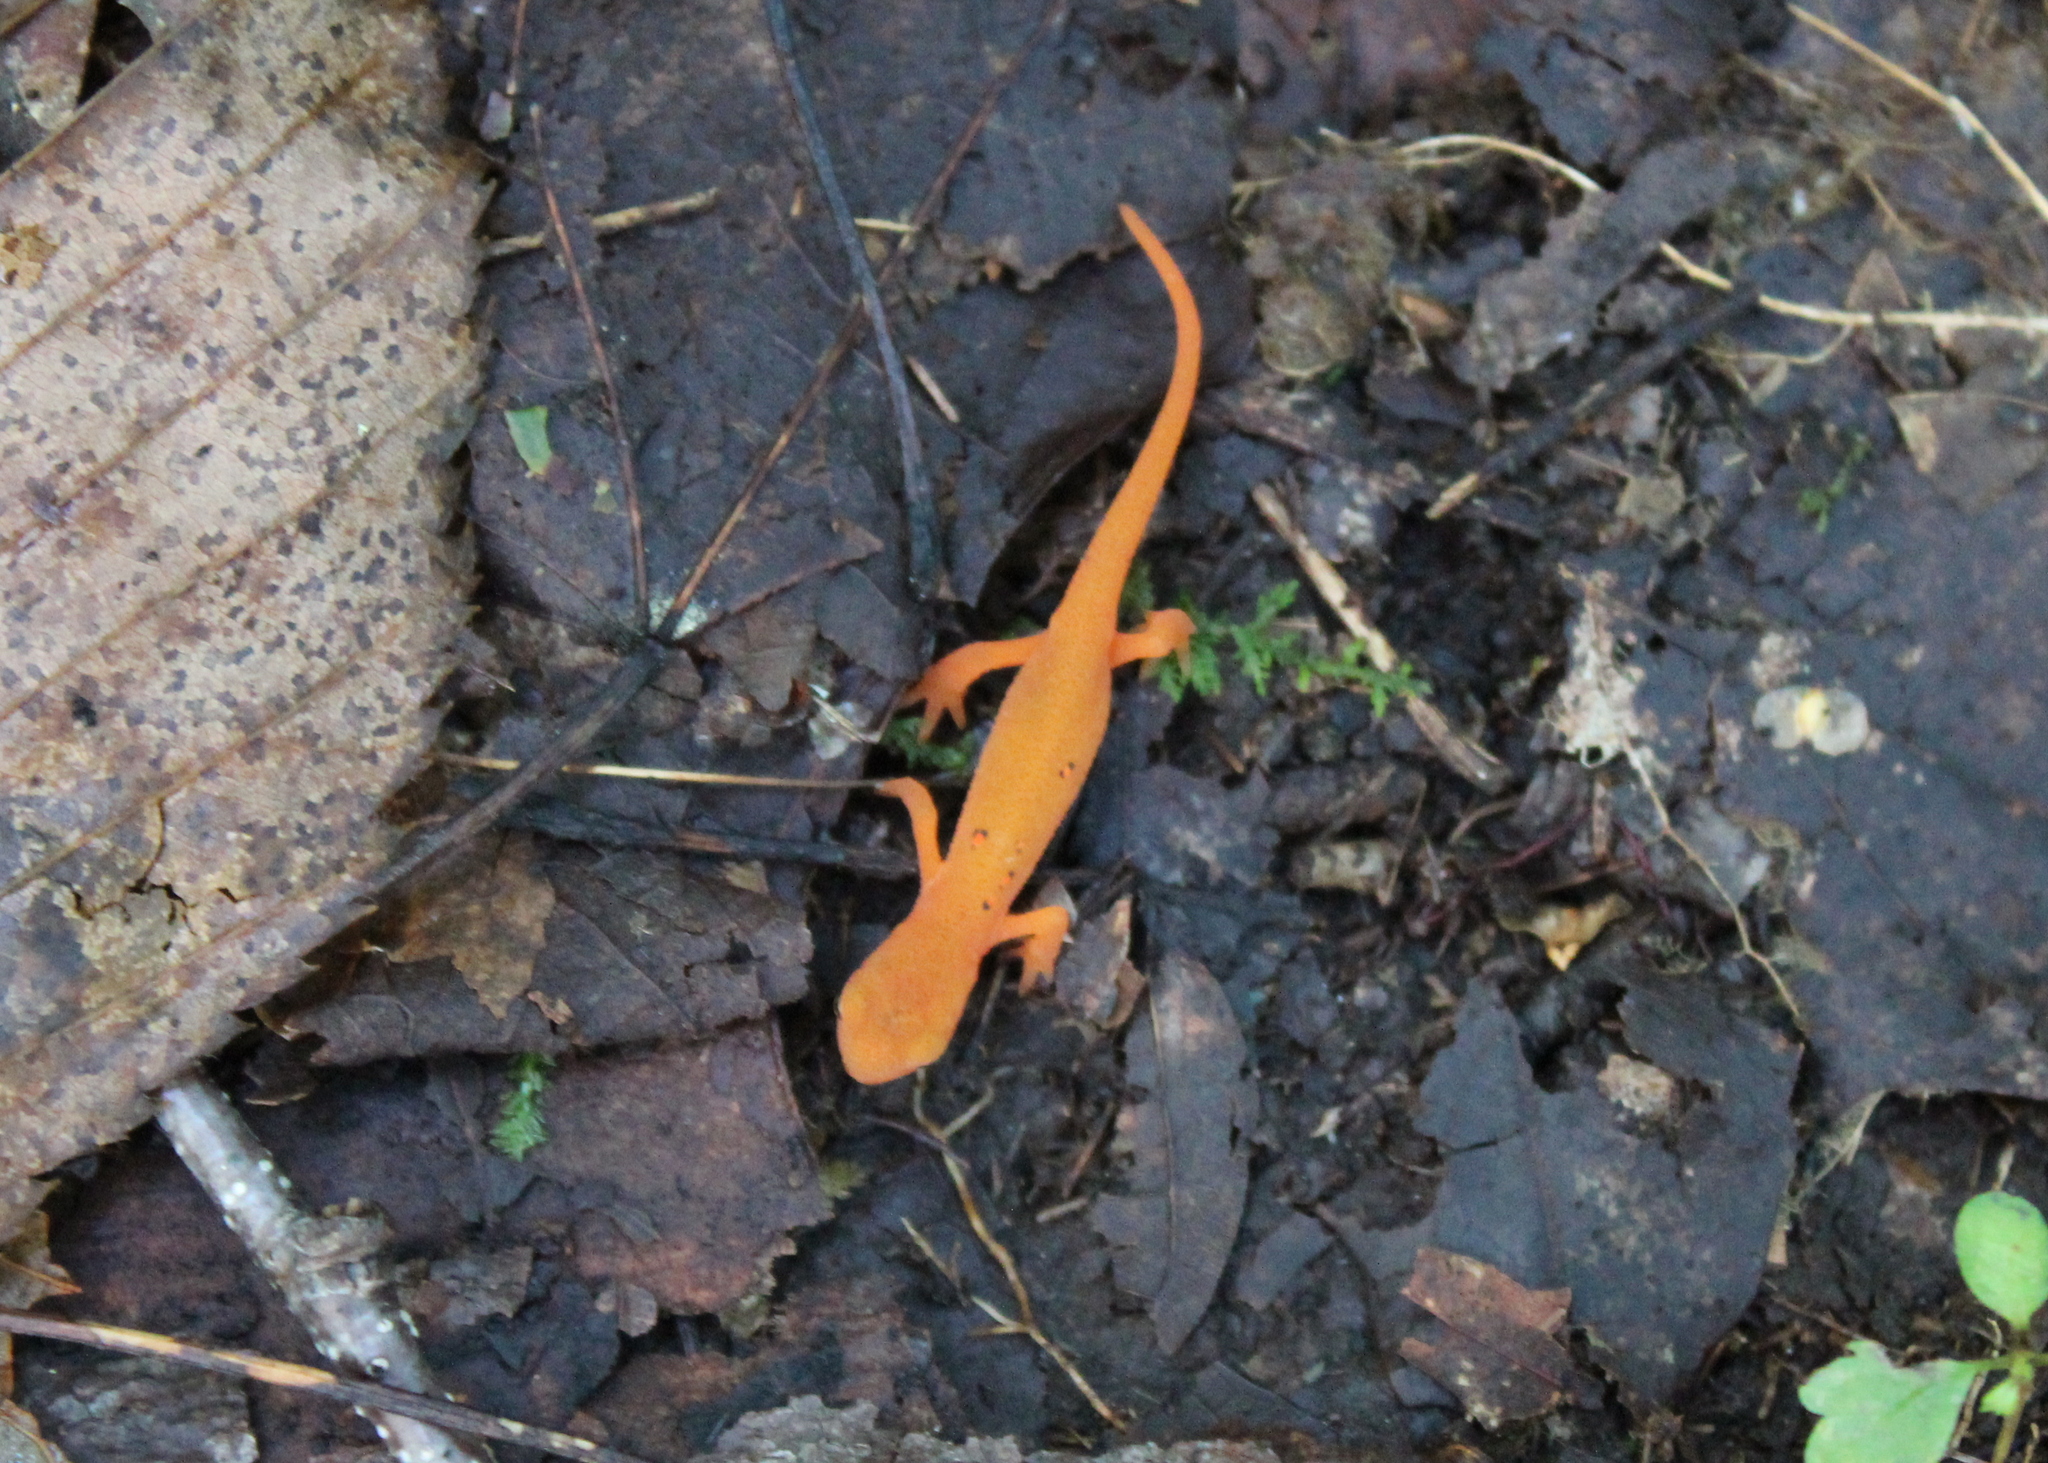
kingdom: Animalia
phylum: Chordata
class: Amphibia
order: Caudata
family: Salamandridae
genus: Notophthalmus
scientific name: Notophthalmus viridescens
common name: Eastern newt
